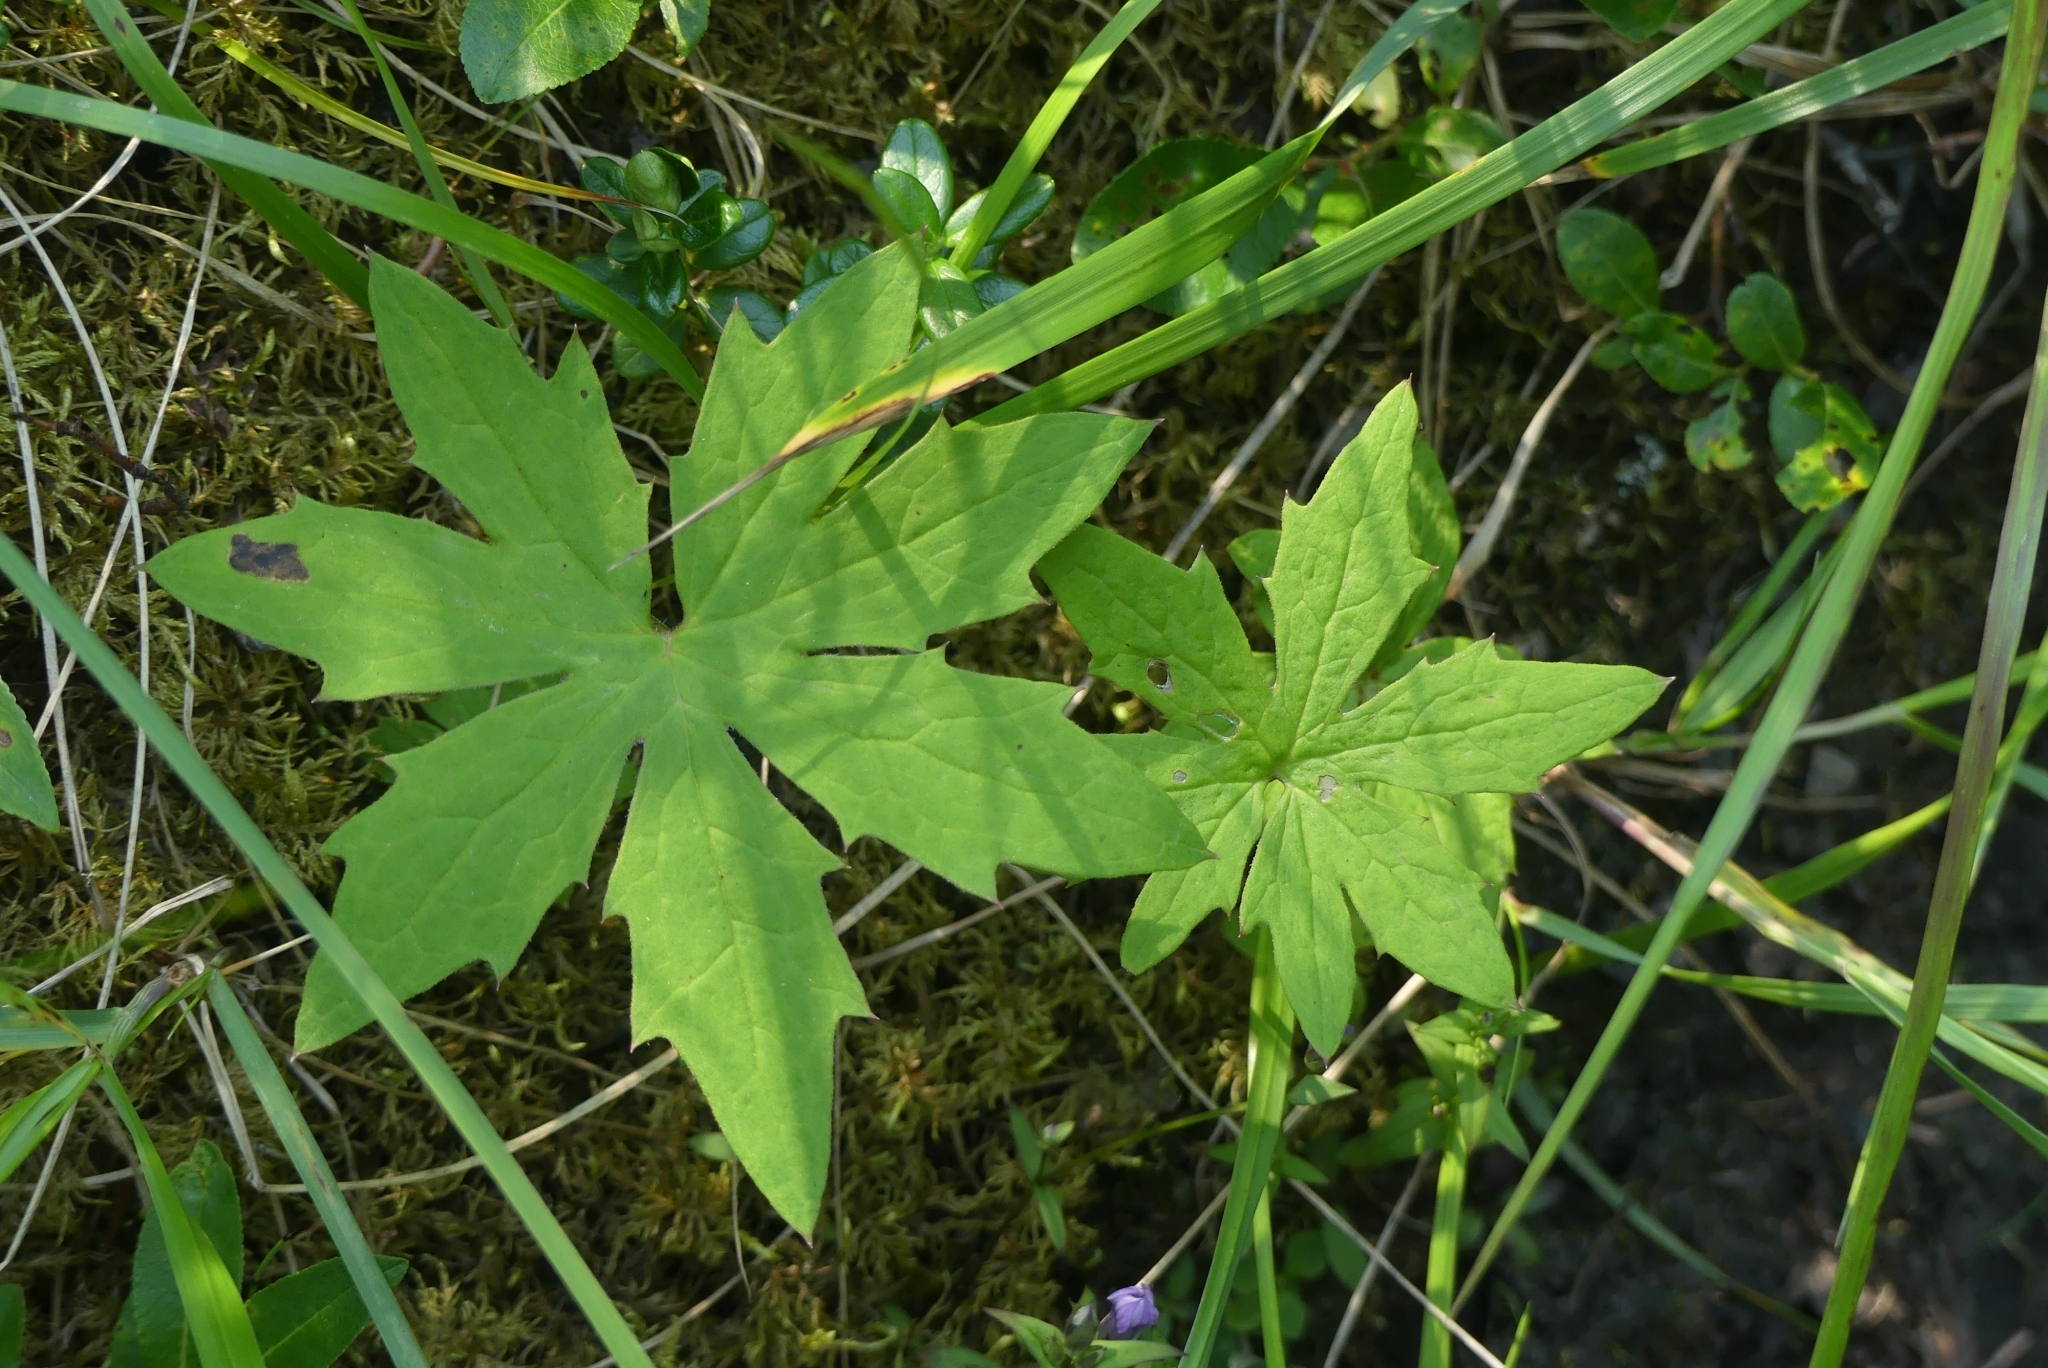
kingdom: Plantae
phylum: Tracheophyta
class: Magnoliopsida
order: Asterales
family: Asteraceae
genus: Petasites
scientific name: Petasites frigidus
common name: Arctic butterbur
